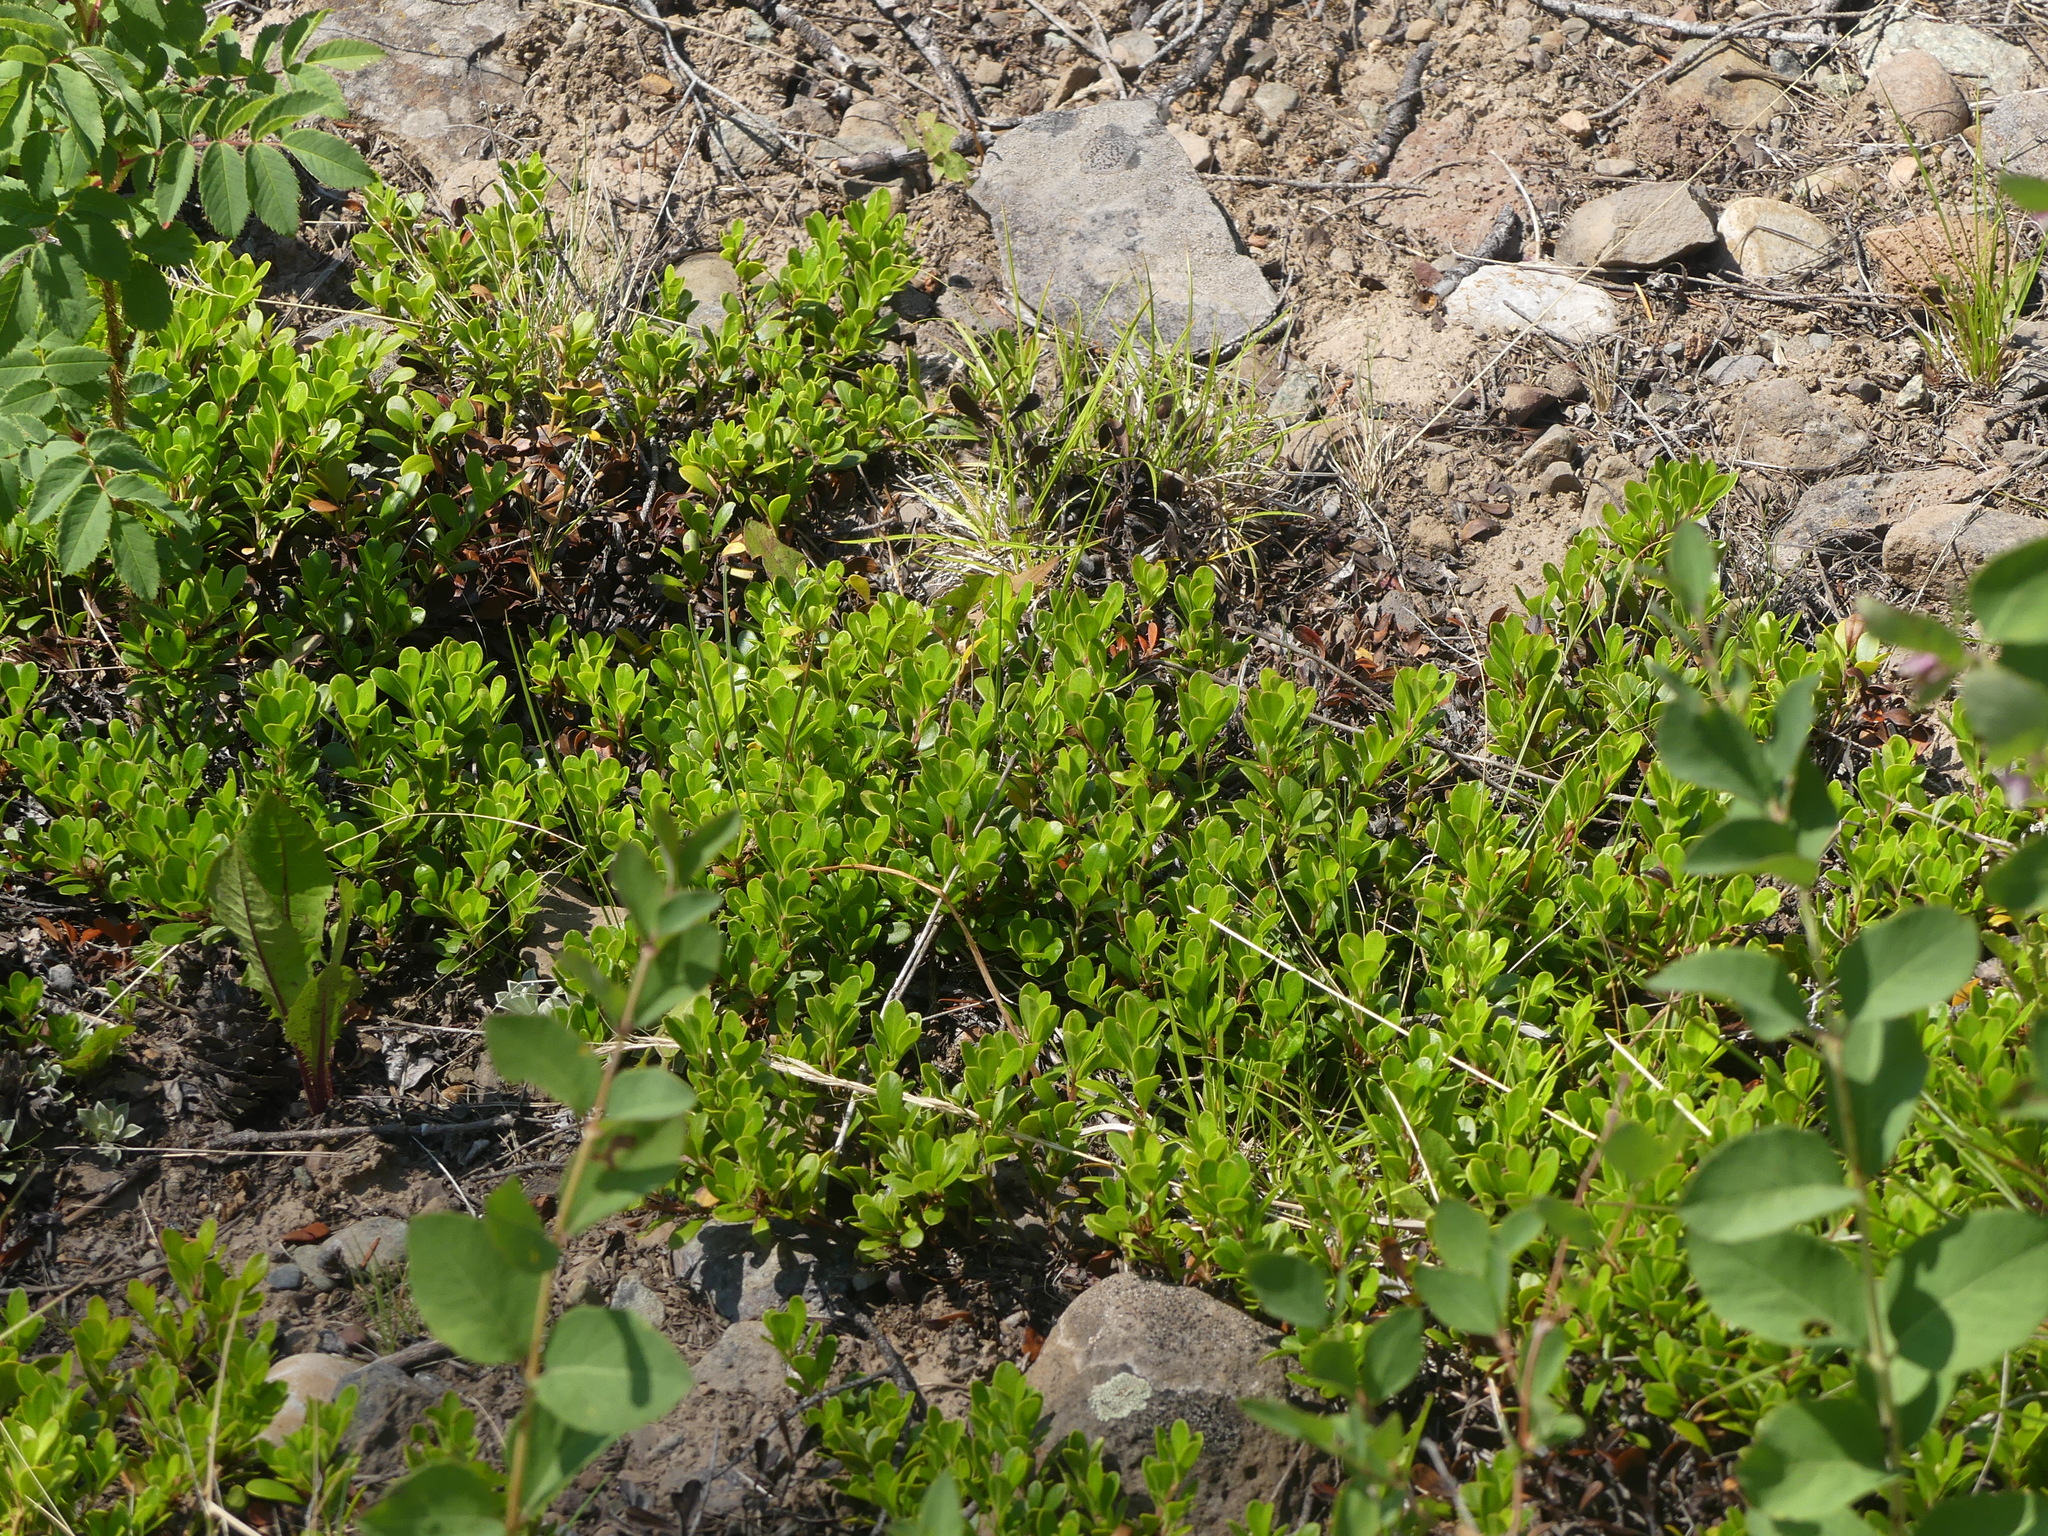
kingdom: Plantae
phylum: Tracheophyta
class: Magnoliopsida
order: Ericales
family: Ericaceae
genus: Arctostaphylos
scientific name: Arctostaphylos uva-ursi
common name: Bearberry
